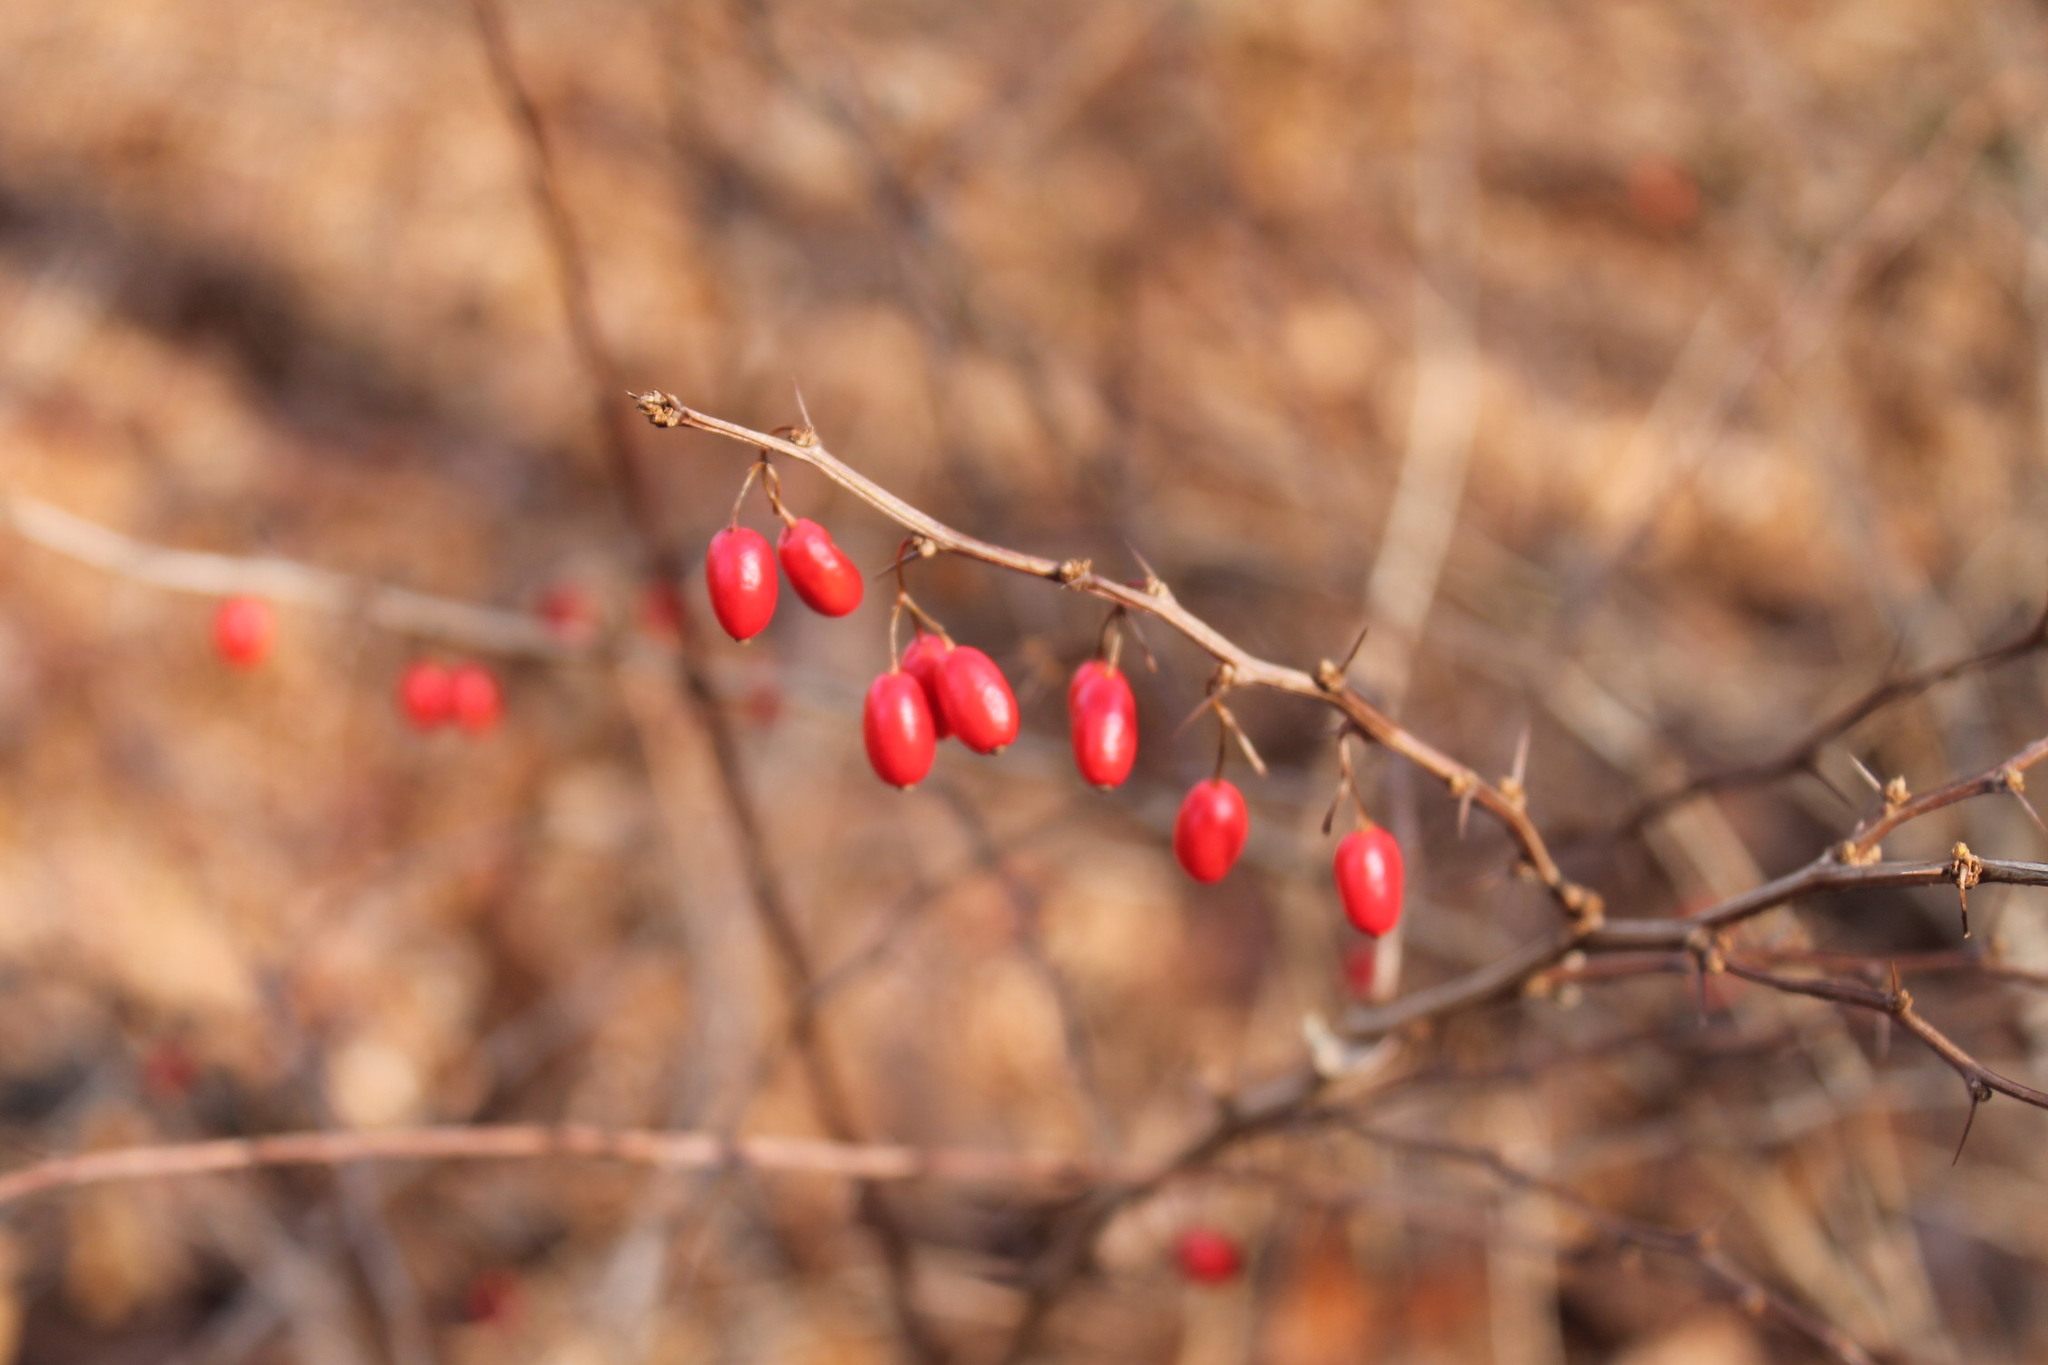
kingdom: Plantae
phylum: Tracheophyta
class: Magnoliopsida
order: Ranunculales
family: Berberidaceae
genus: Berberis
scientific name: Berberis thunbergii
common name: Japanese barberry
